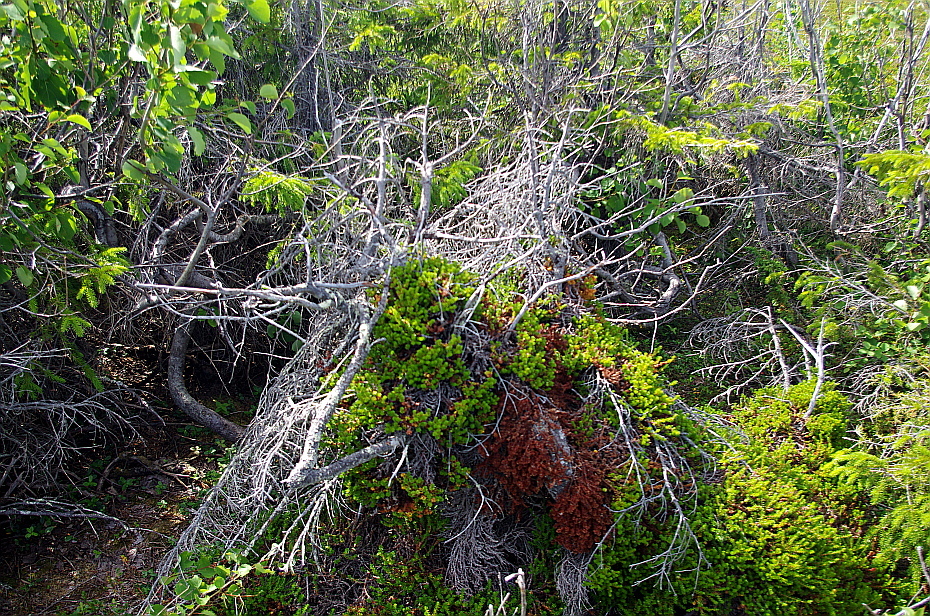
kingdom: Plantae
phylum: Tracheophyta
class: Magnoliopsida
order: Ericales
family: Ericaceae
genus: Empetrum
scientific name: Empetrum nigrum
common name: Black crowberry
